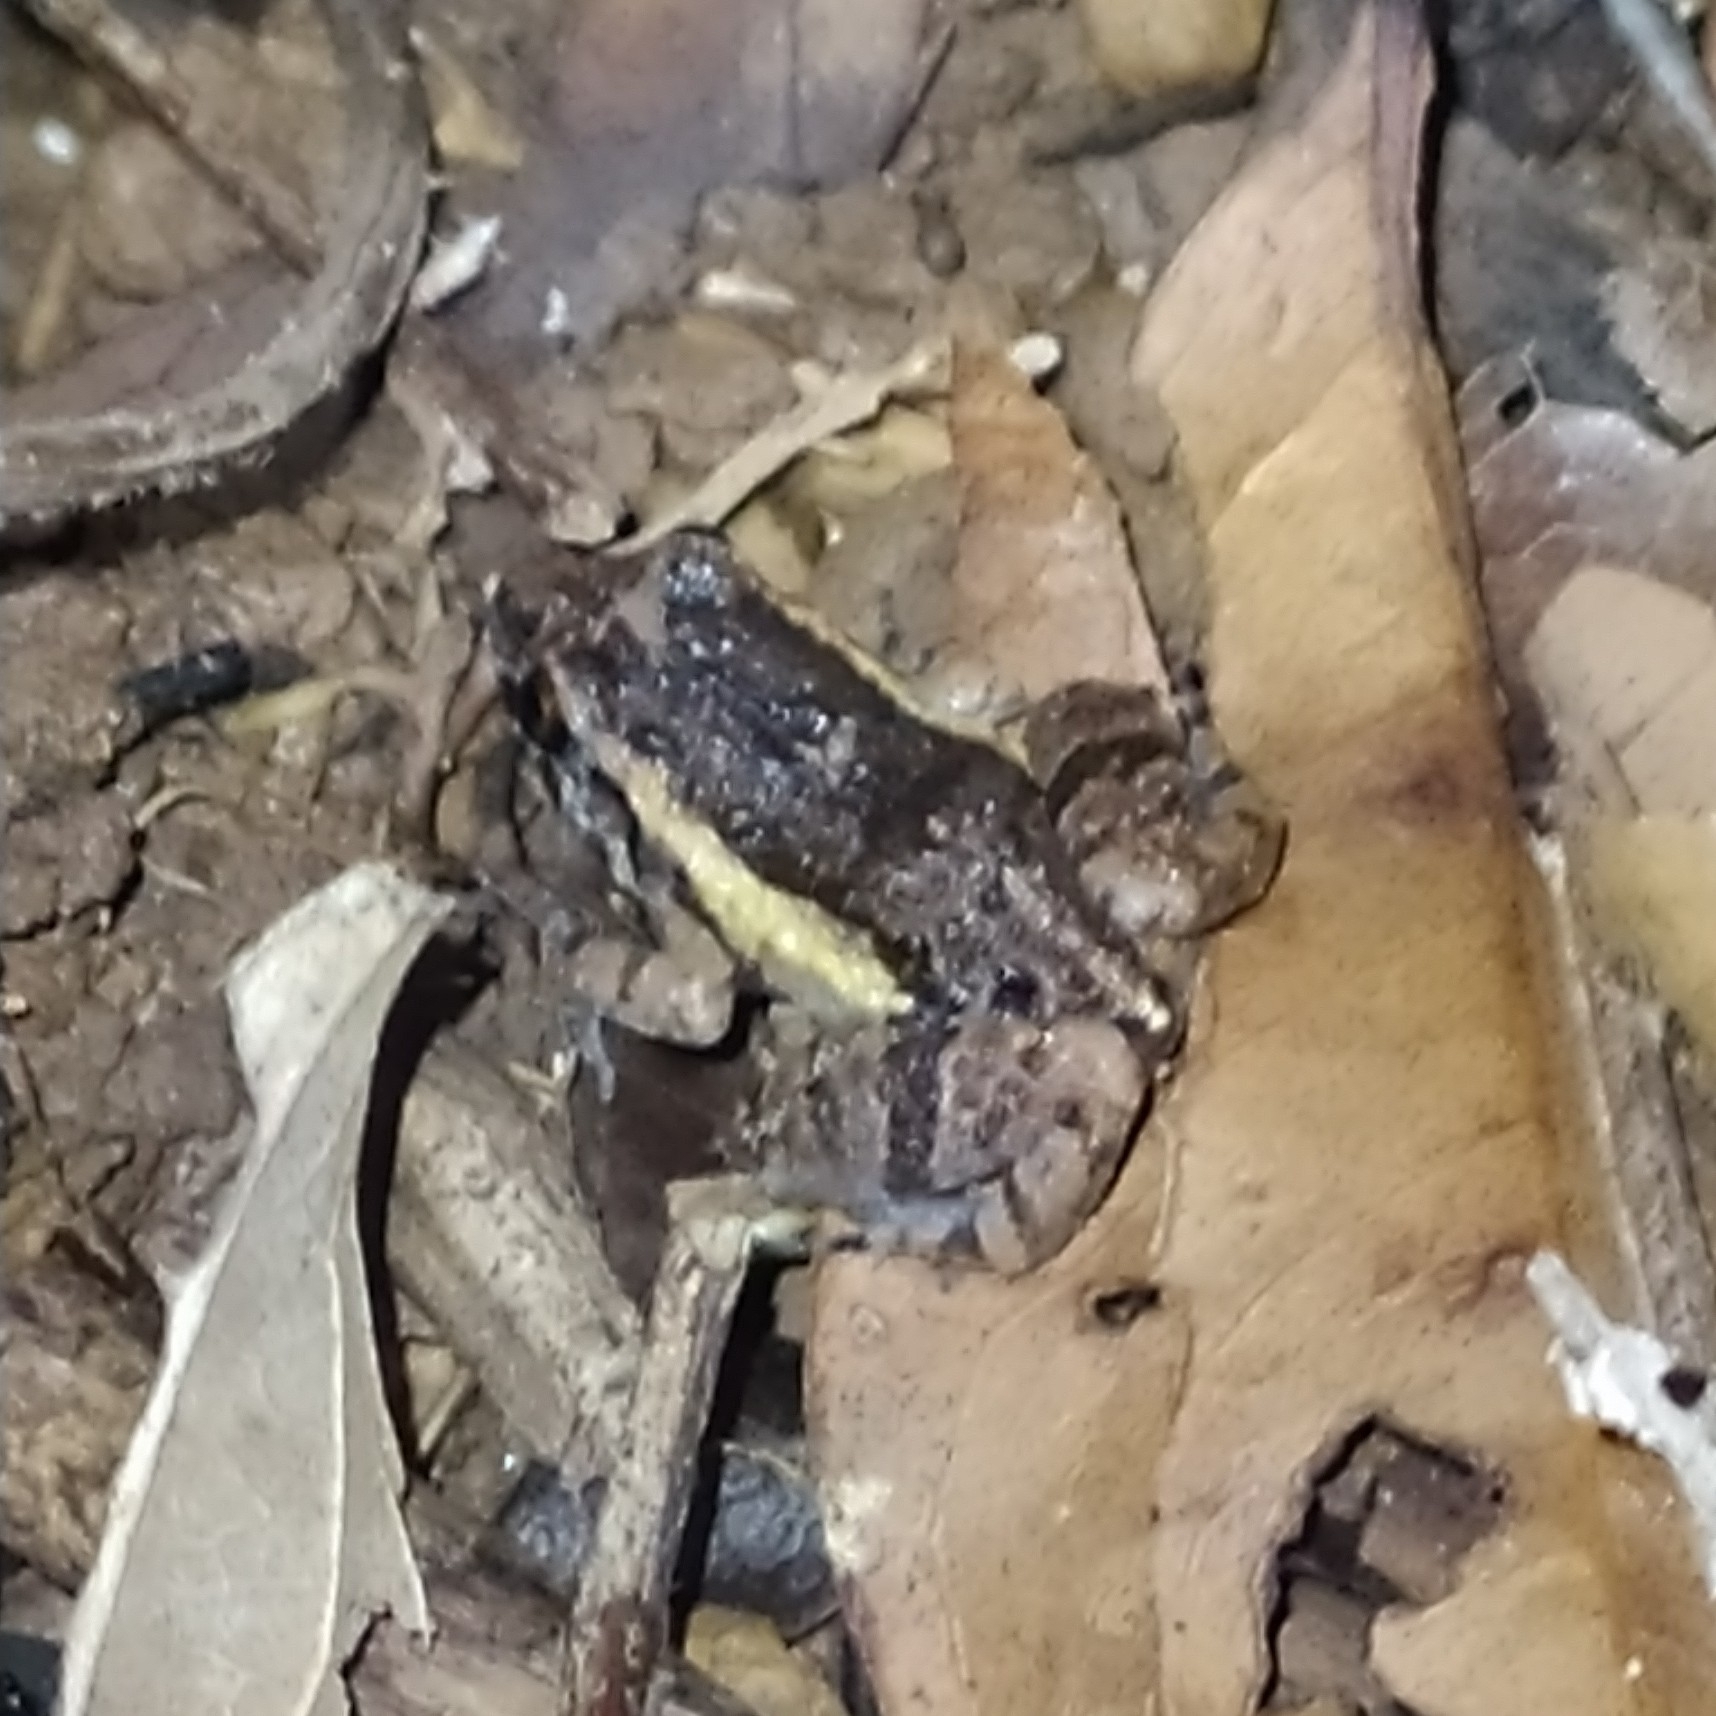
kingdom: Animalia
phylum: Chordata
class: Amphibia
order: Anura
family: Leptodactylidae
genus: Adenomera
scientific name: Adenomera andreae
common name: Lowland tropical bullfrog
